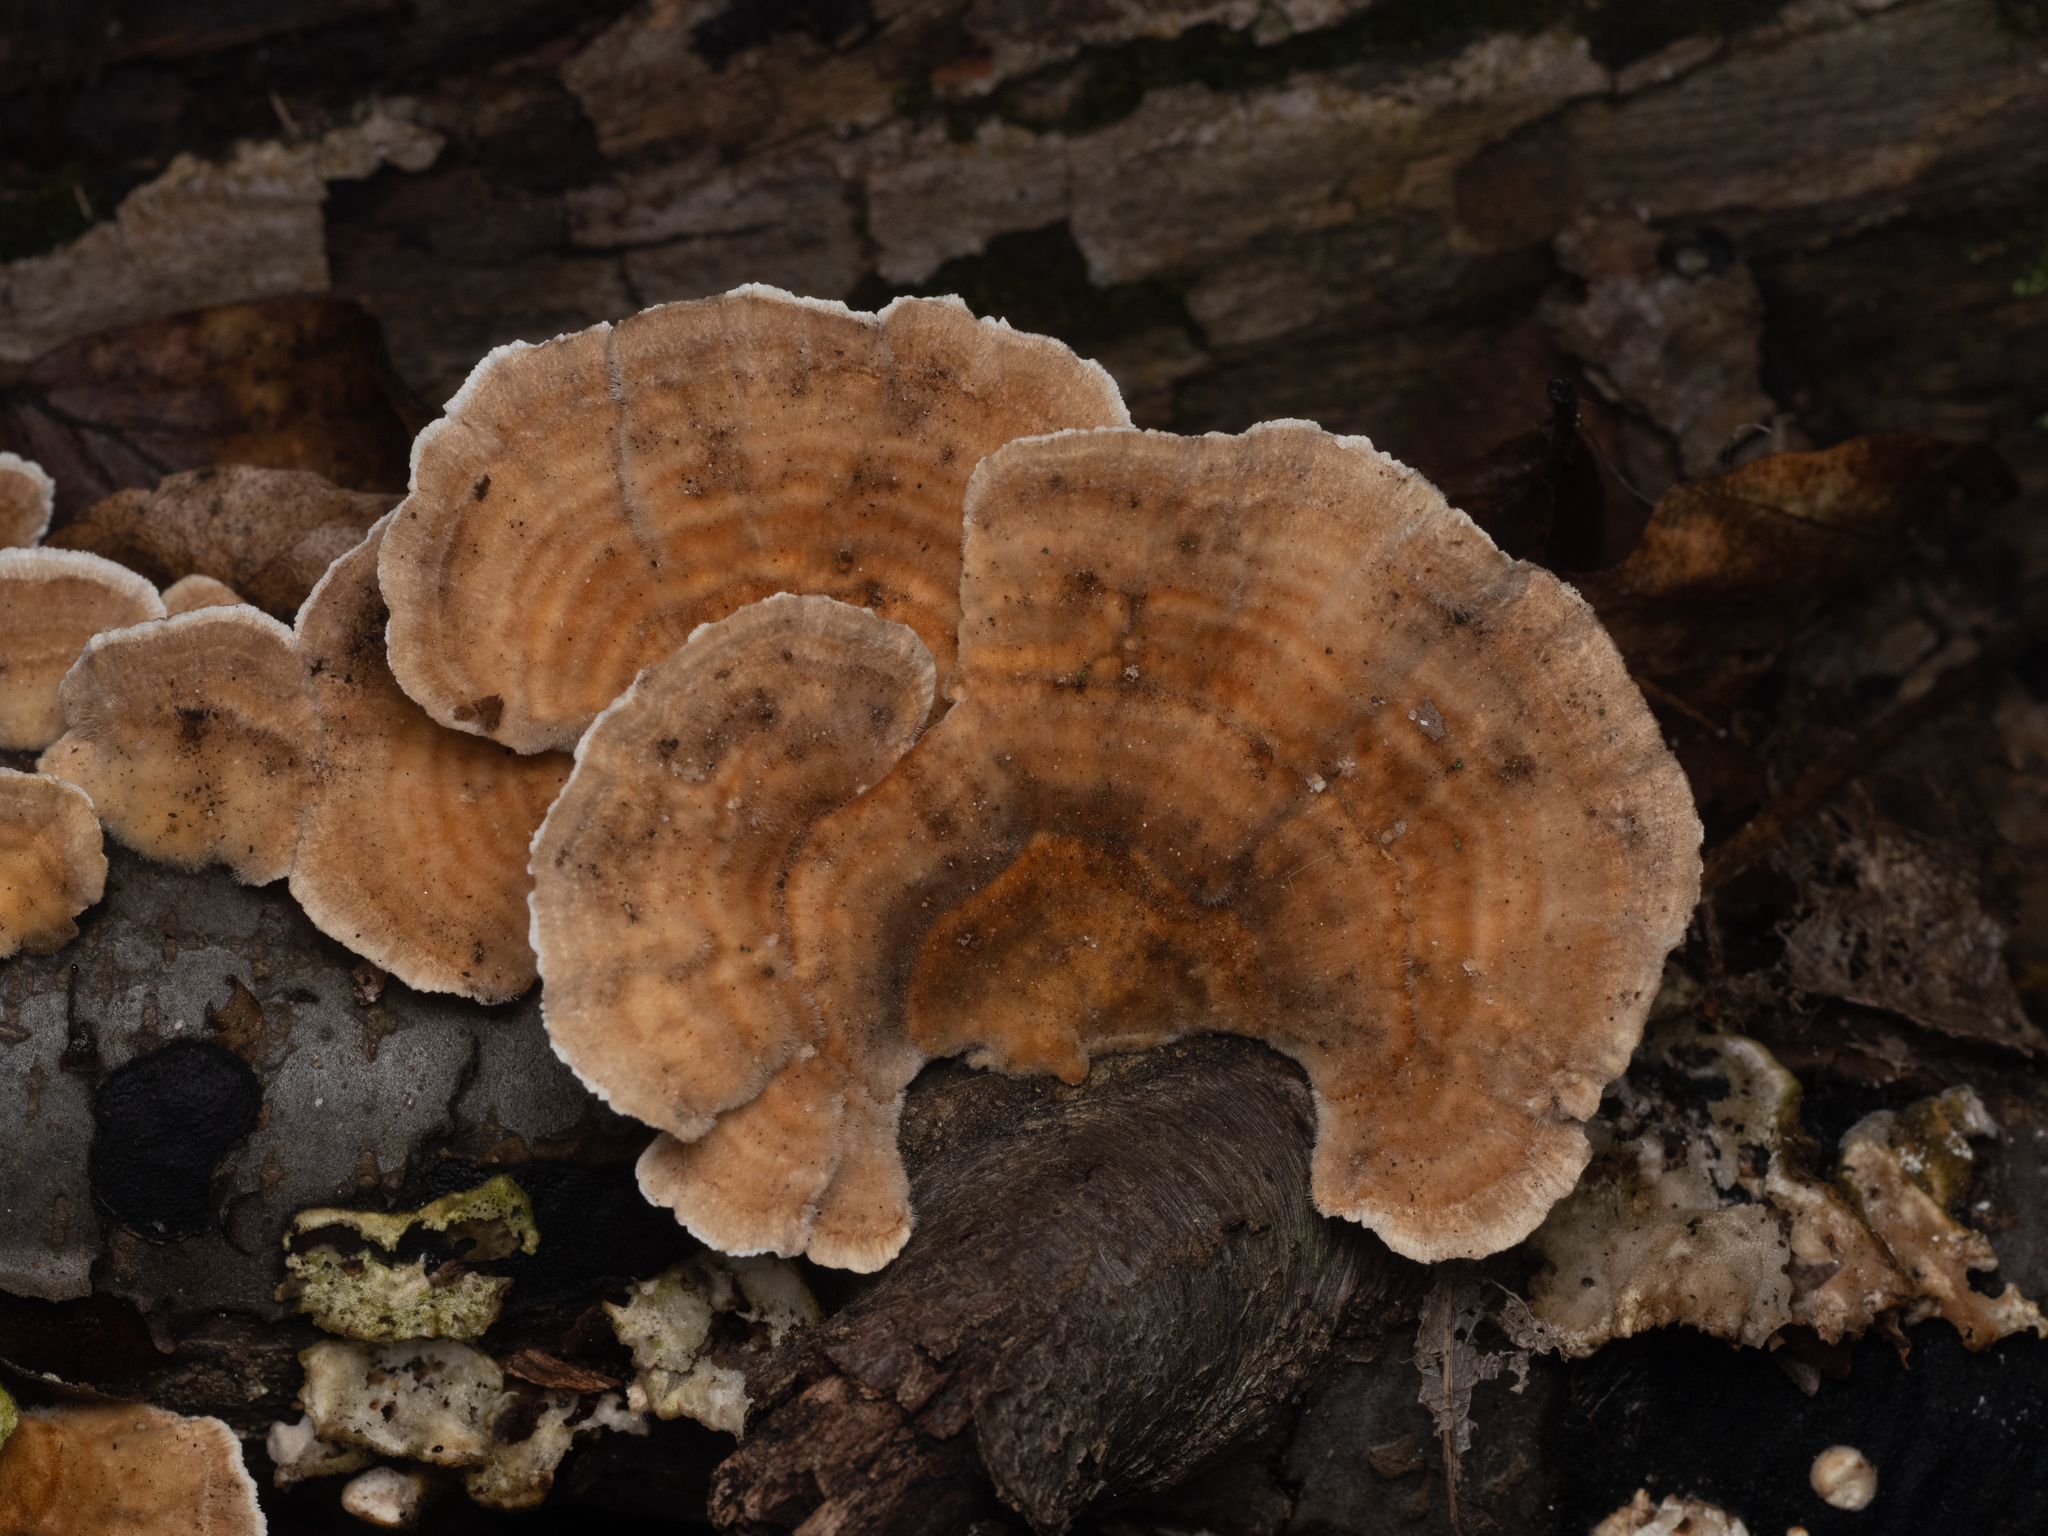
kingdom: Fungi
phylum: Basidiomycota
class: Agaricomycetes
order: Polyporales
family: Polyporaceae
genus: Trametes
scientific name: Trametes ochracea
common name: Ochre bracket
